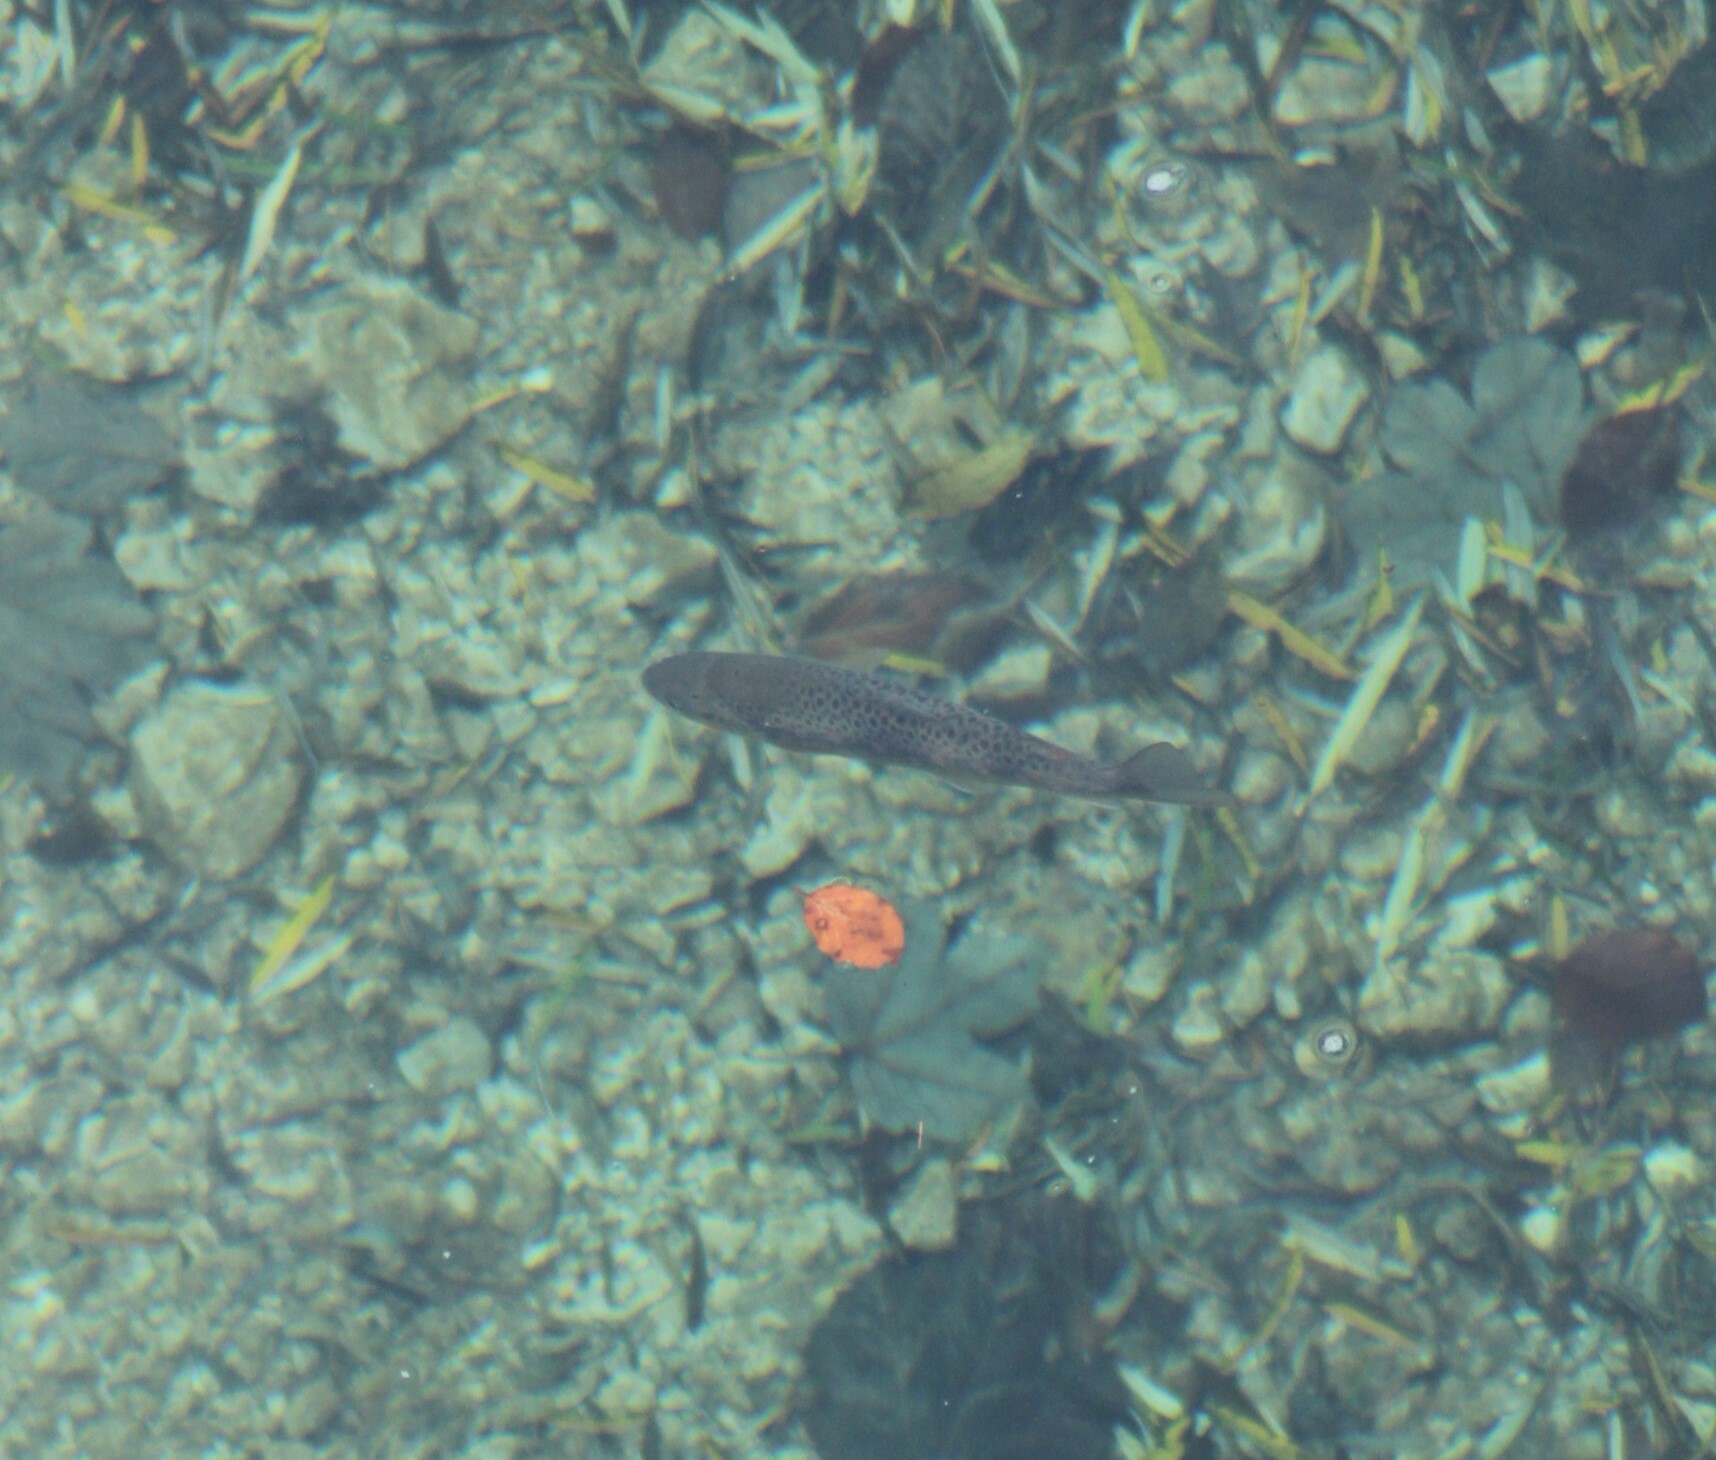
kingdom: Animalia
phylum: Chordata
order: Salmoniformes
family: Salmonidae
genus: Salmo
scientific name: Salmo trutta
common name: Brown trout
